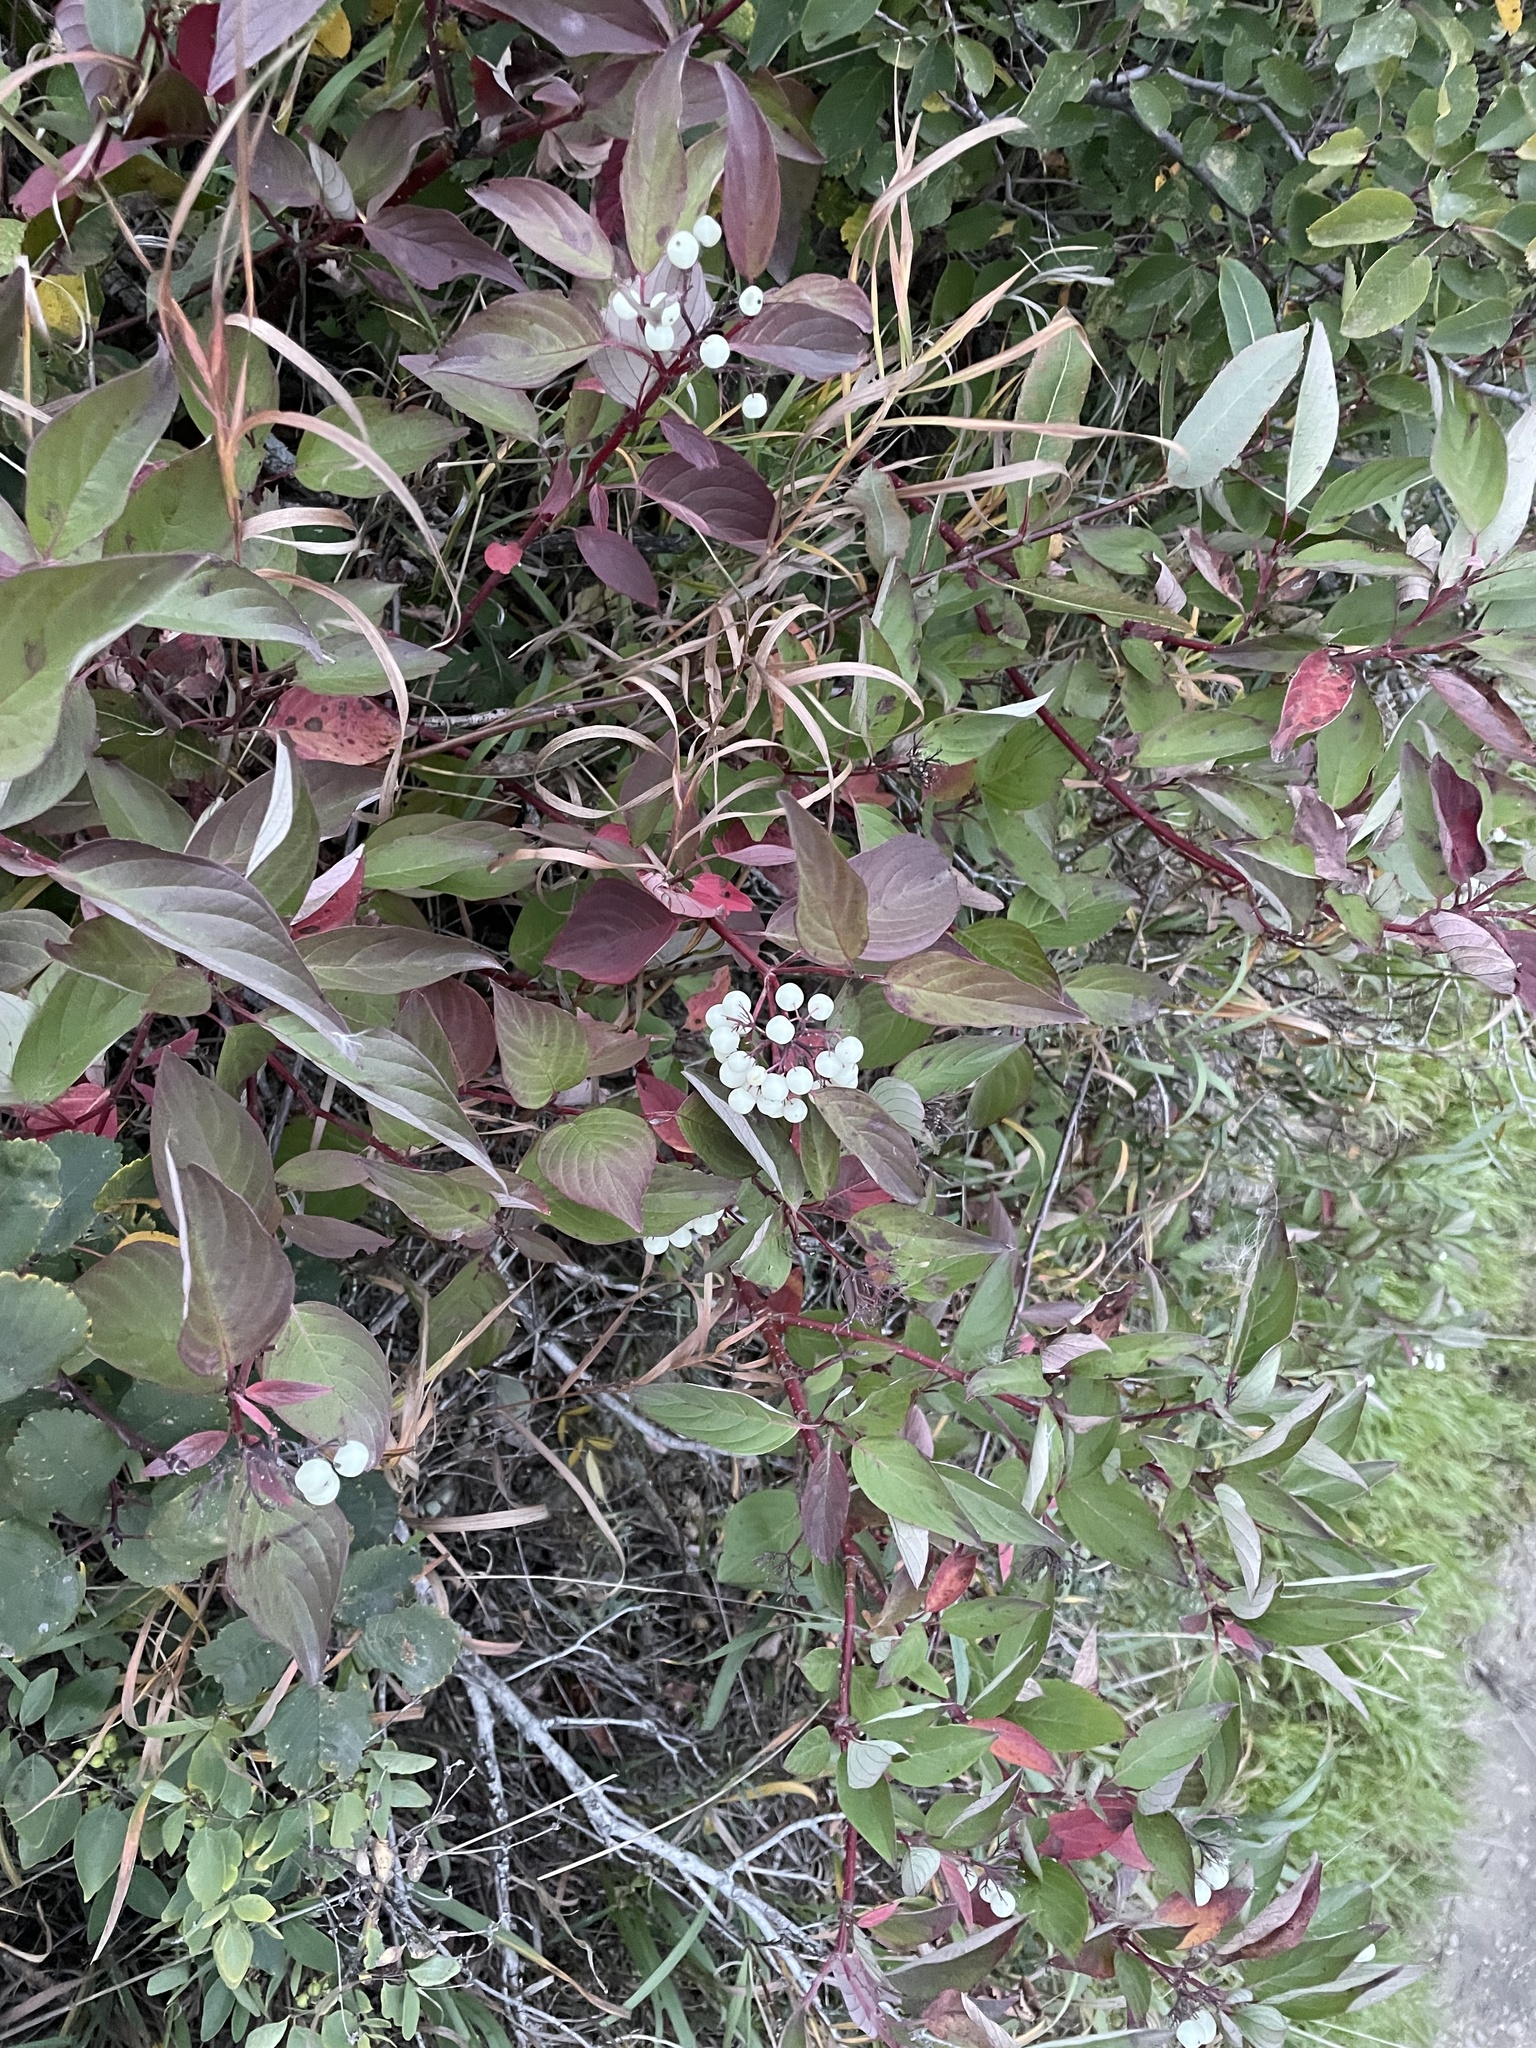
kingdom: Plantae
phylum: Tracheophyta
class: Magnoliopsida
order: Cornales
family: Cornaceae
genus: Cornus
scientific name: Cornus sericea
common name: Red-osier dogwood
